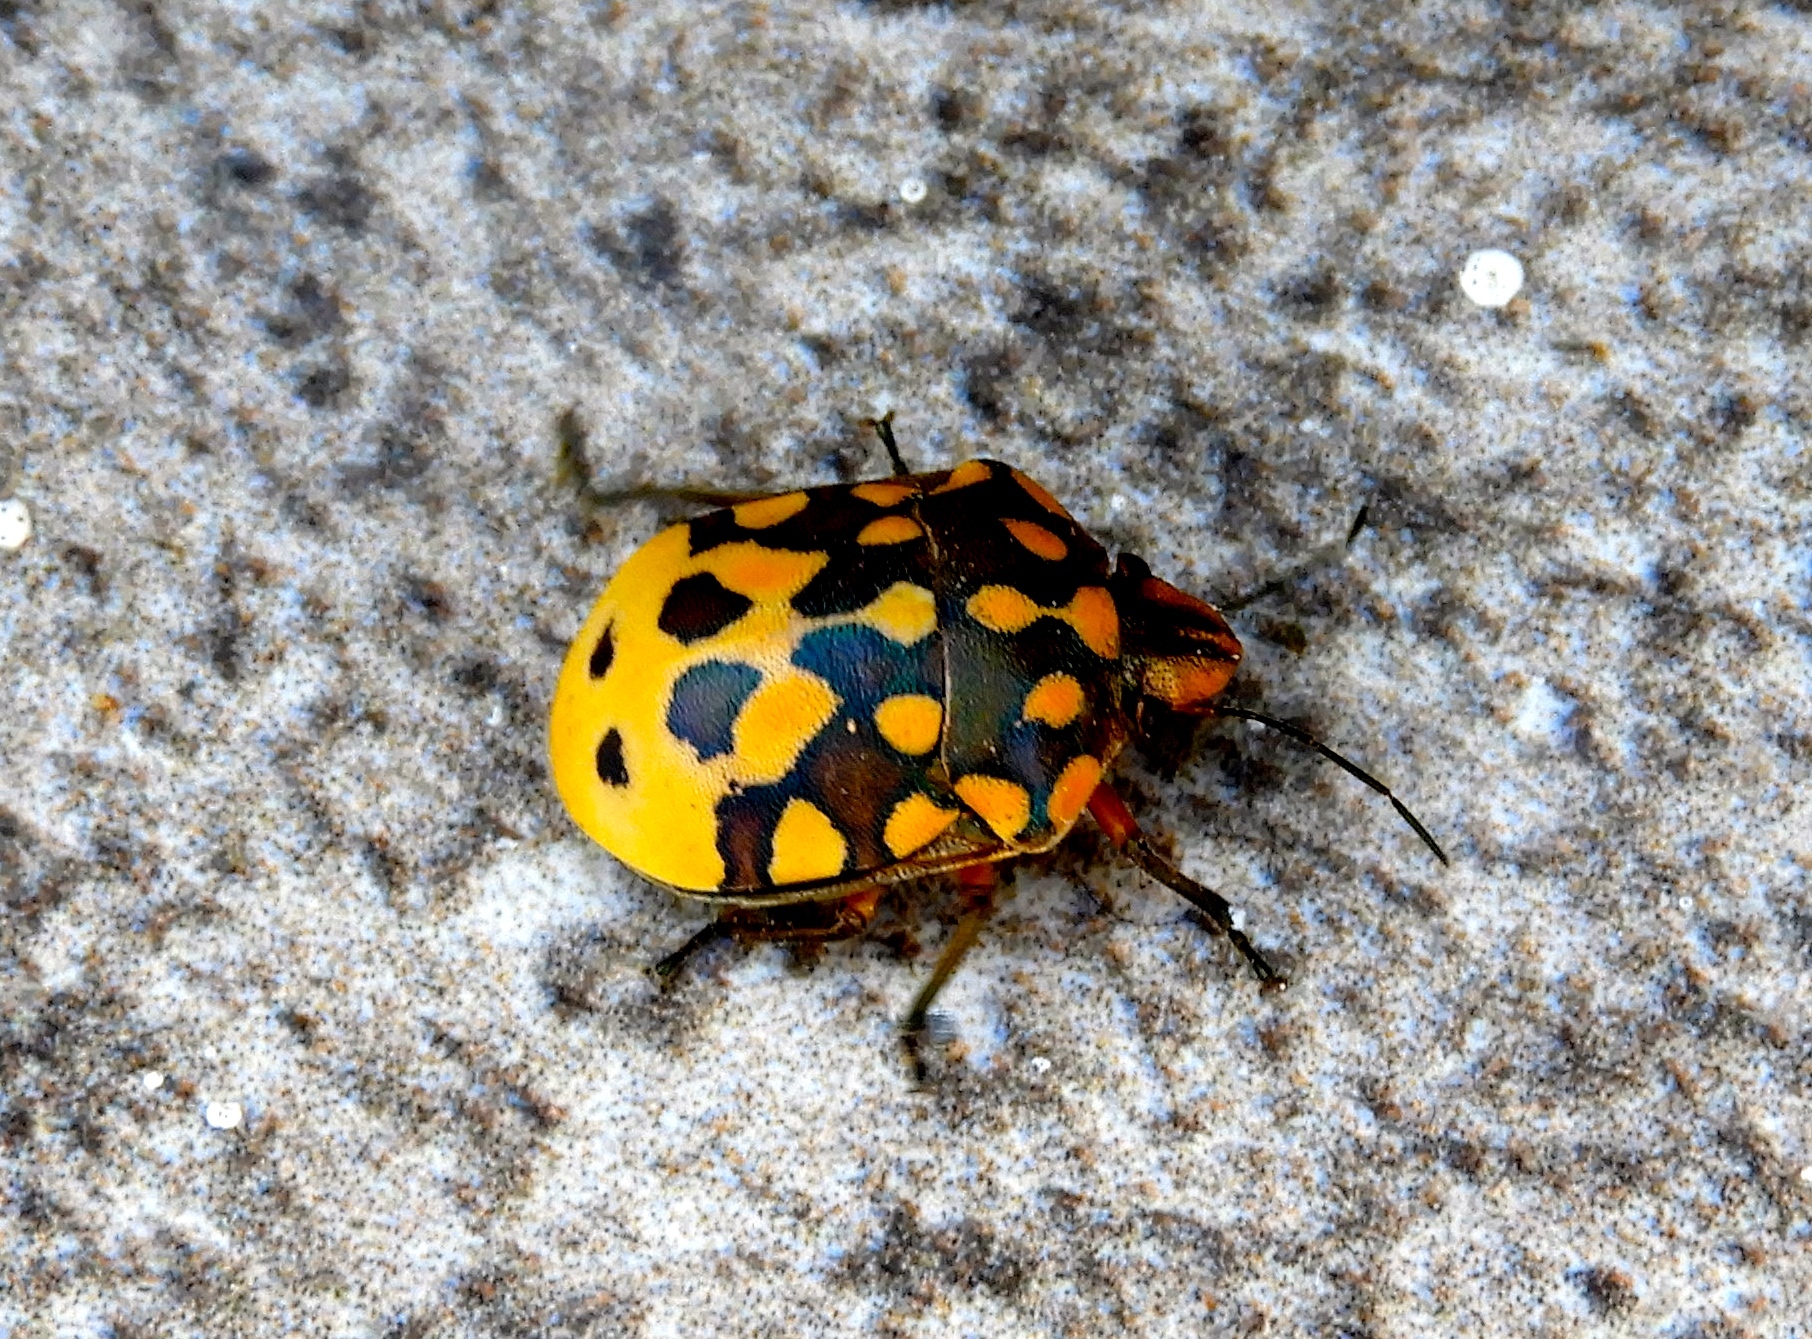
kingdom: Animalia
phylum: Arthropoda
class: Insecta
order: Hemiptera
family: Scutelleridae
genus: Pachycoris
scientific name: Pachycoris
